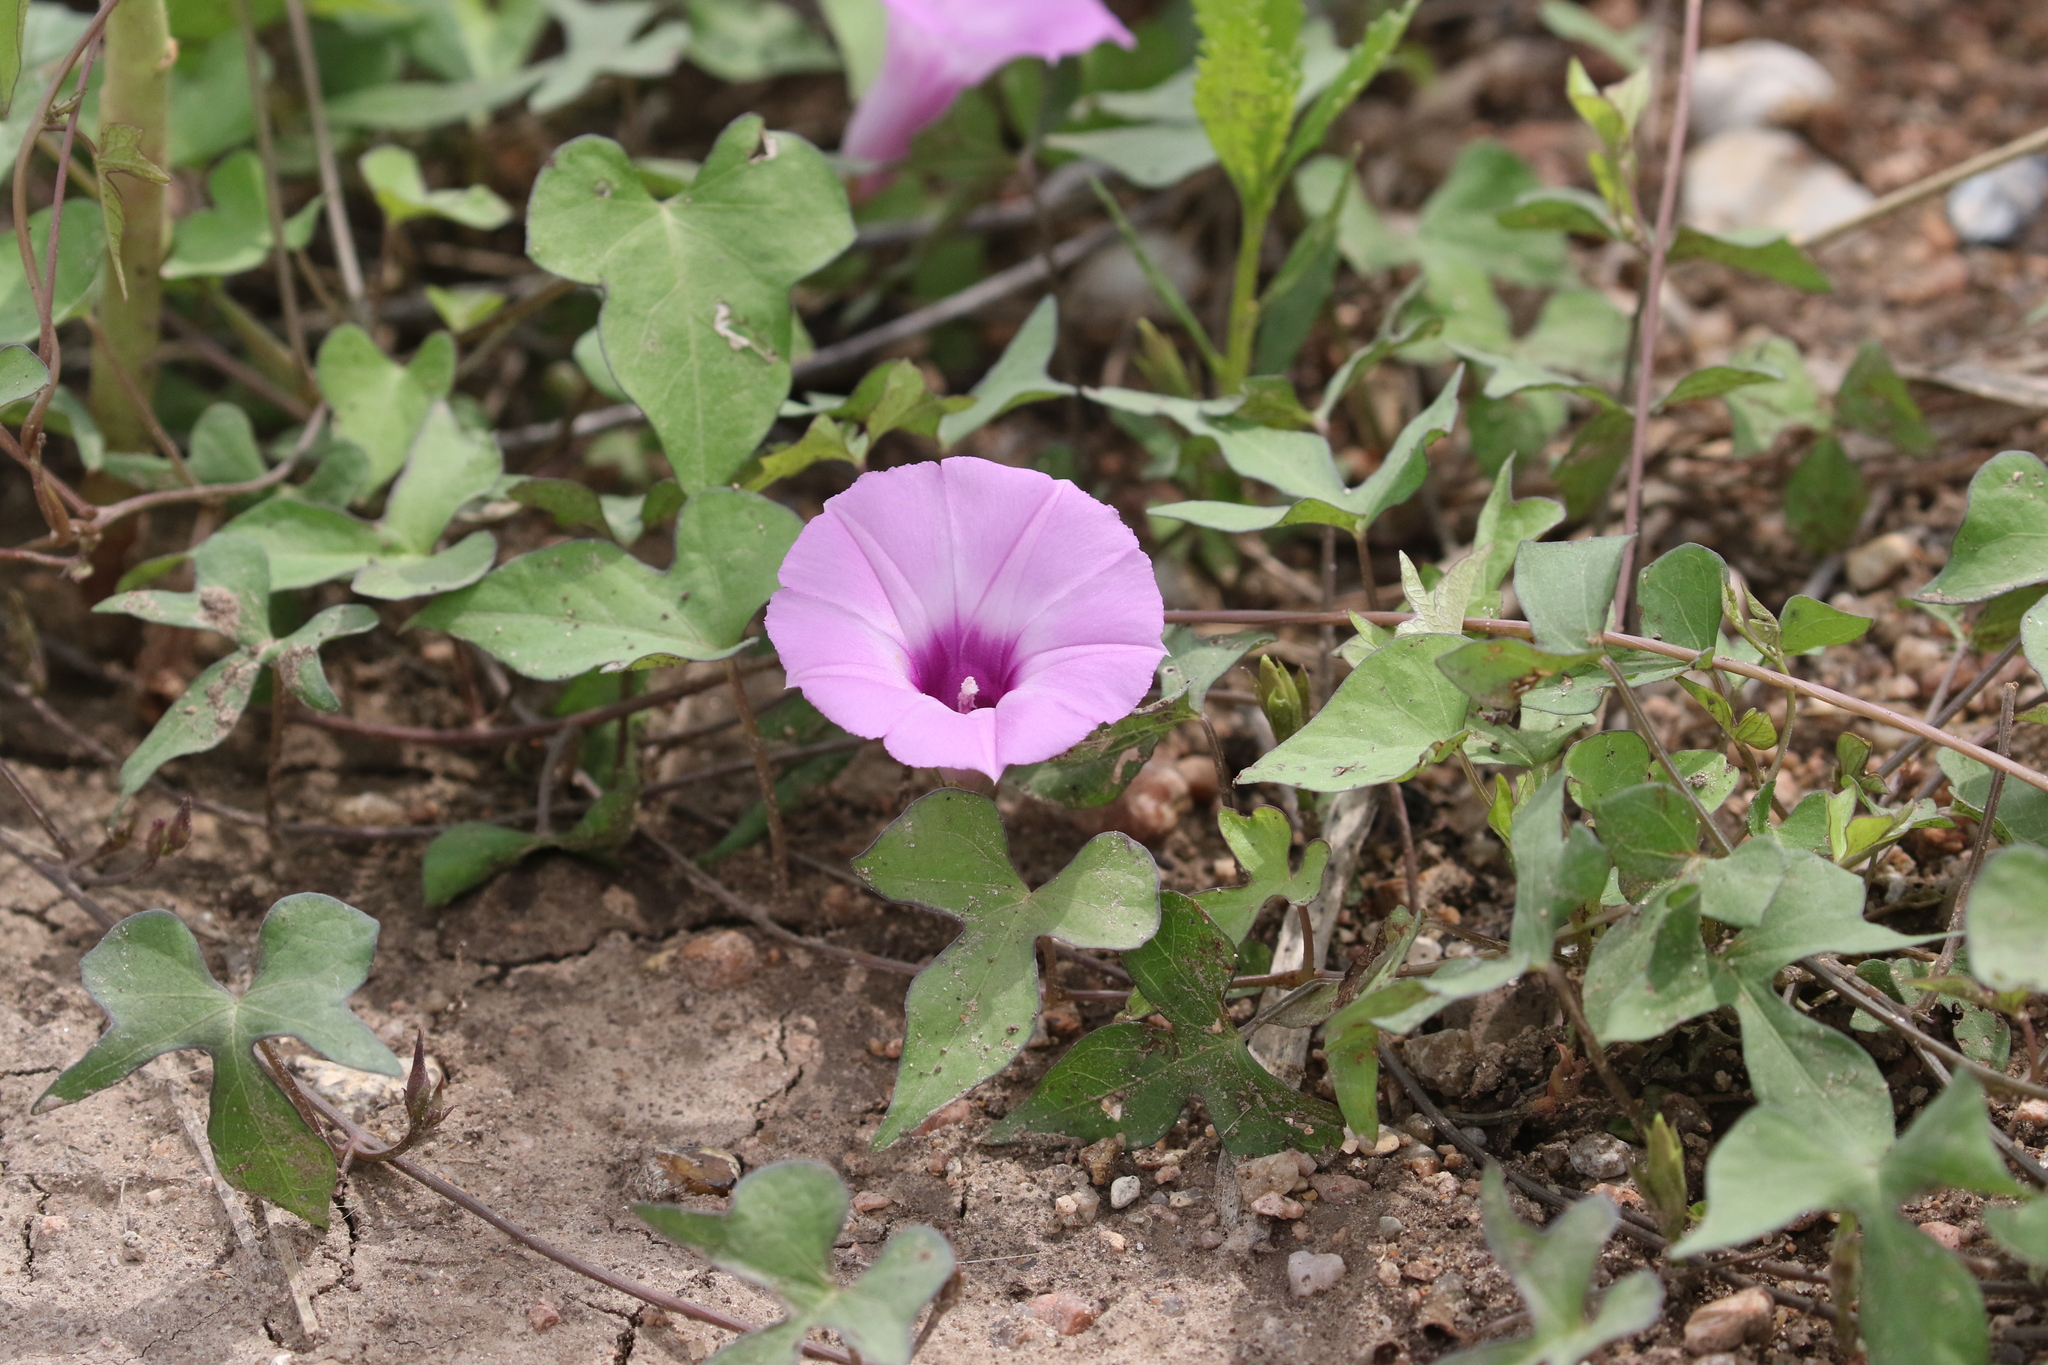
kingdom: Plantae
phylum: Tracheophyta
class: Magnoliopsida
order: Solanales
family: Convolvulaceae
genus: Ipomoea
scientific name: Ipomoea cordatotriloba
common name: Cotton morning glory
